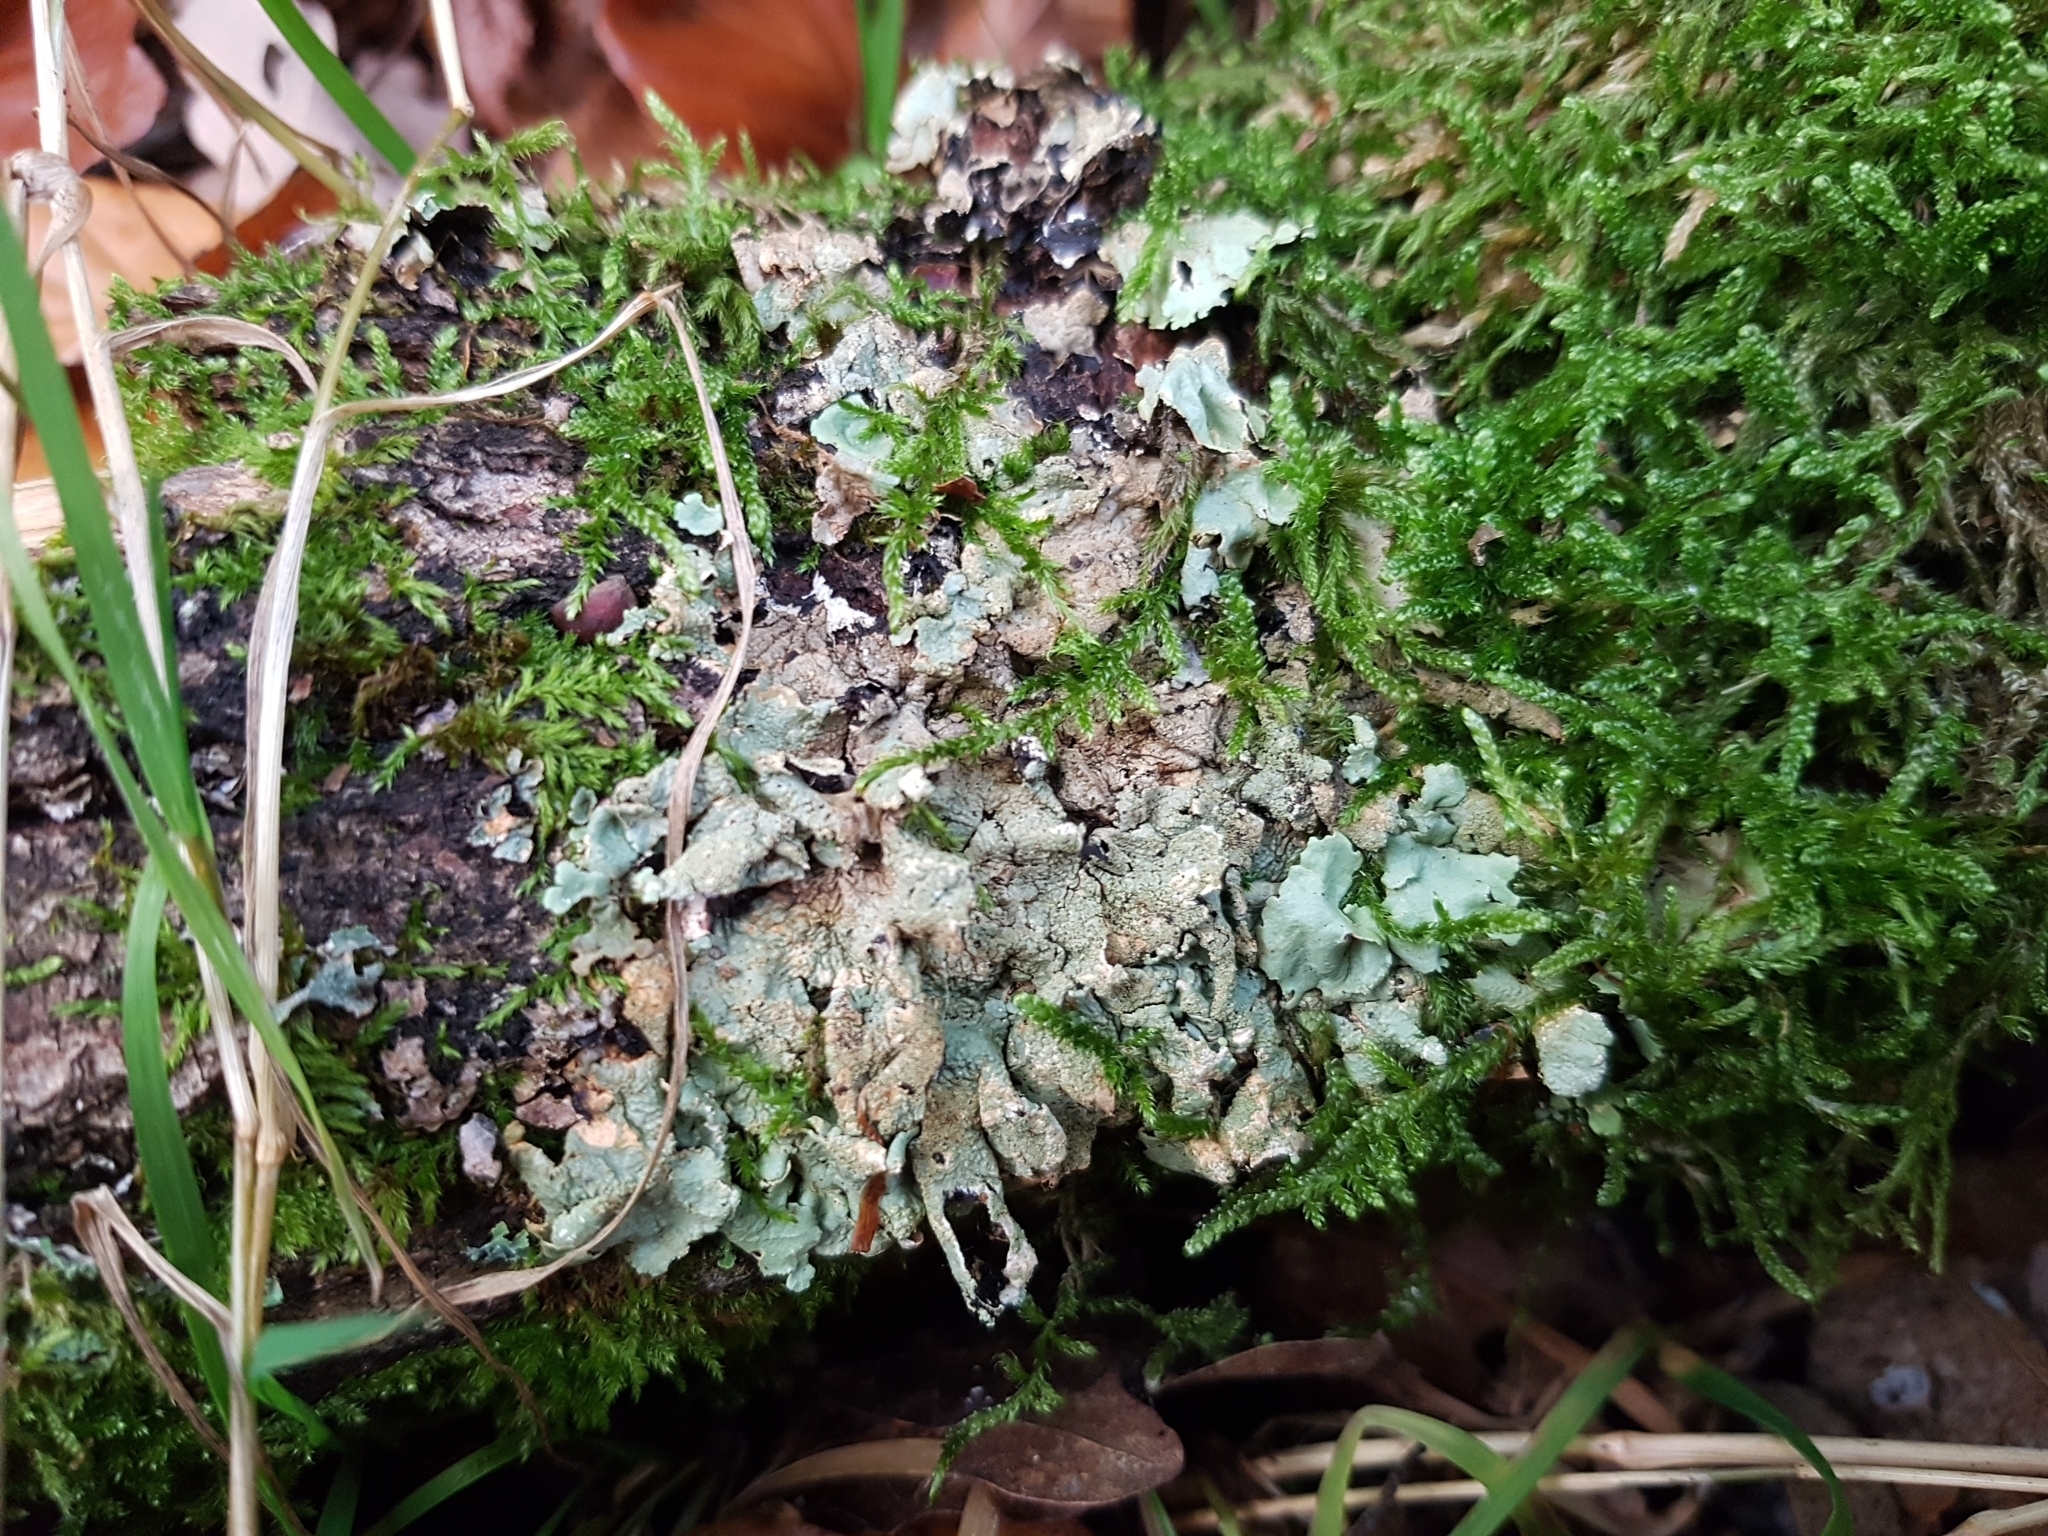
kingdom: Fungi
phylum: Ascomycota
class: Lecanoromycetes
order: Lecanorales
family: Parmeliaceae
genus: Flavoparmelia
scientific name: Flavoparmelia caperata
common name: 40-mile per hour lichen
